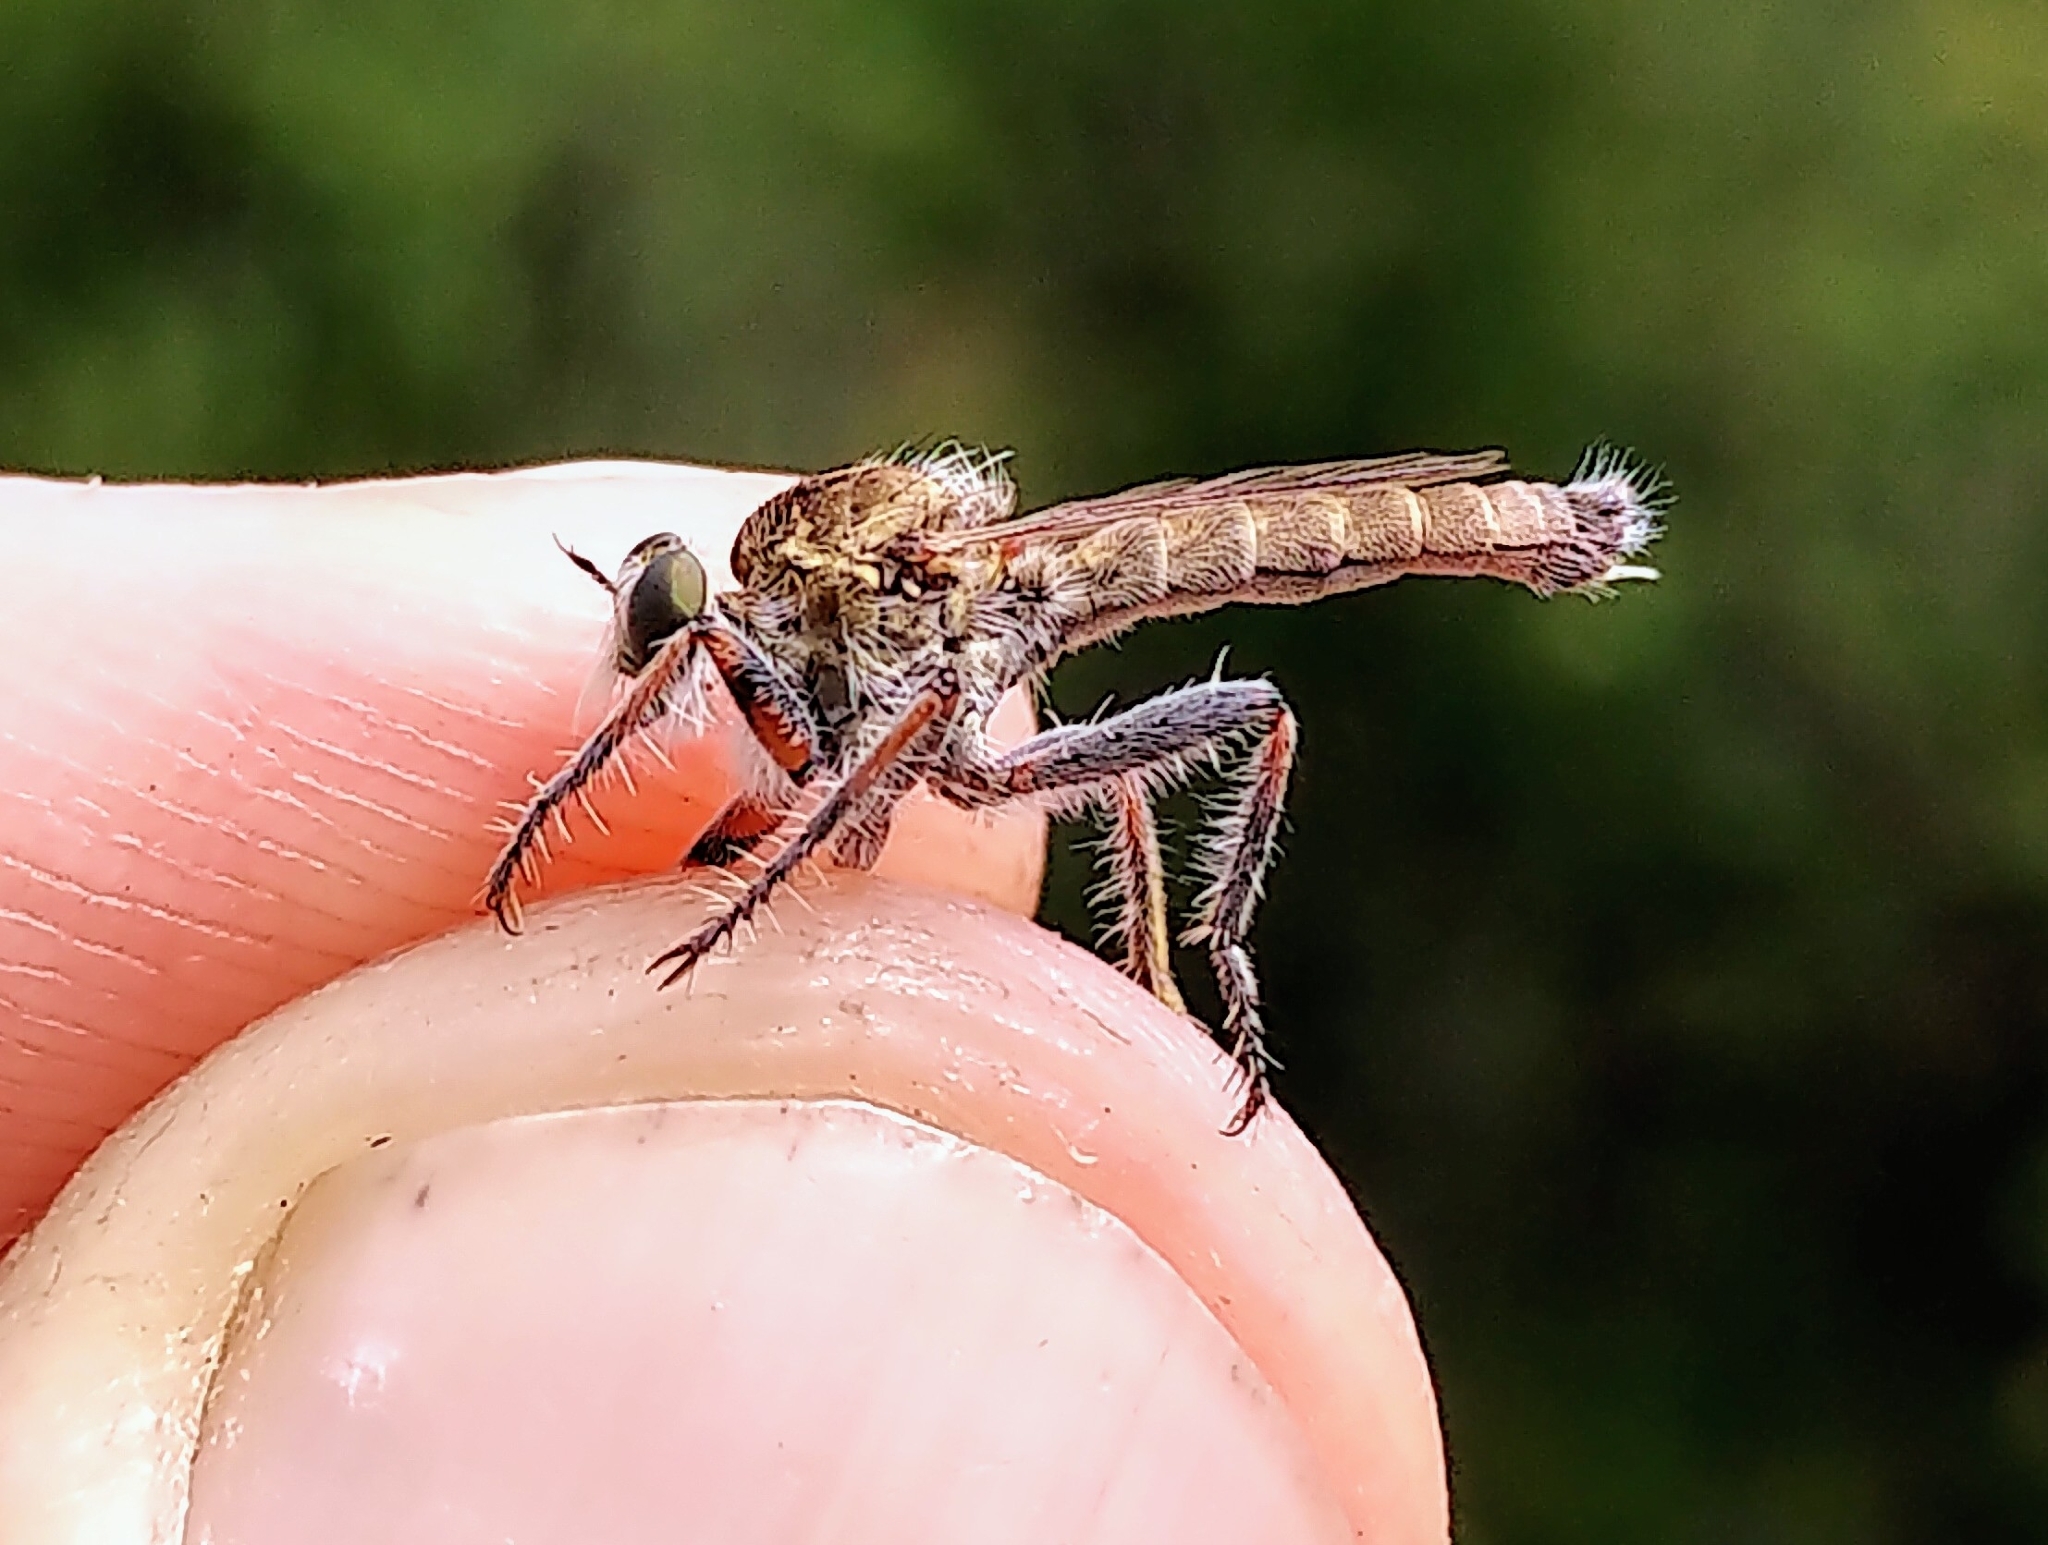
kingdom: Animalia
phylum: Arthropoda
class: Insecta
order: Diptera
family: Asilidae
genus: Proctacanthella
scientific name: Proctacanthella cacopiloga
